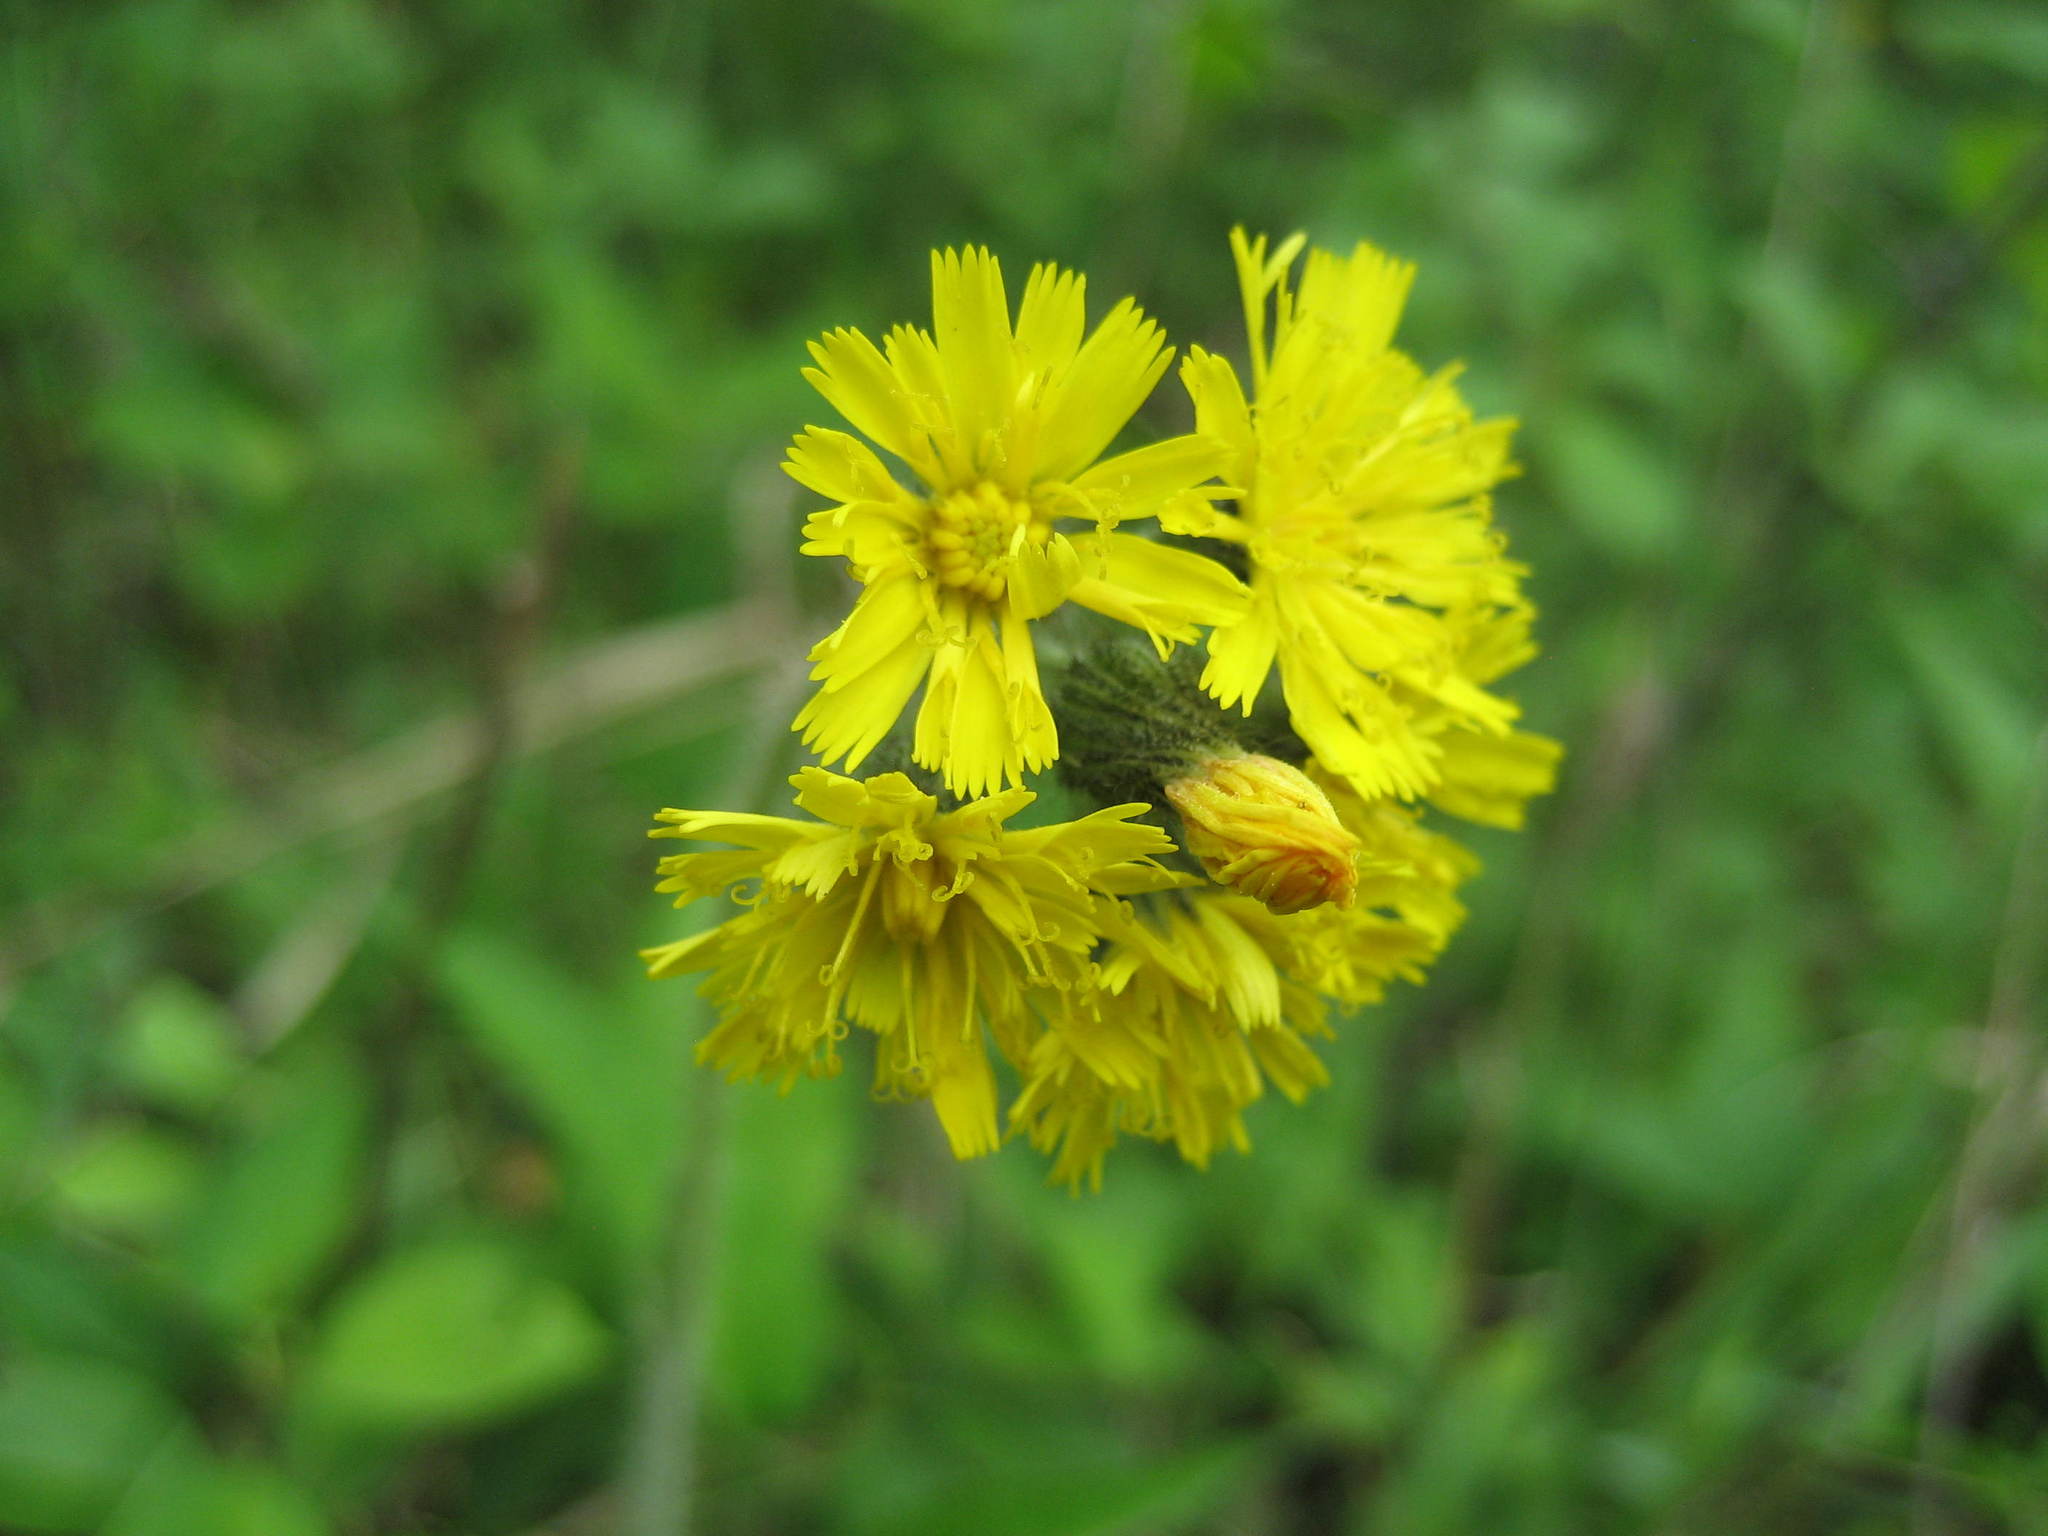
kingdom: Plantae
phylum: Tracheophyta
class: Magnoliopsida
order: Asterales
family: Asteraceae
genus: Pilosella
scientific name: Pilosella caespitosa
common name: Yellow fox-and-cubs
